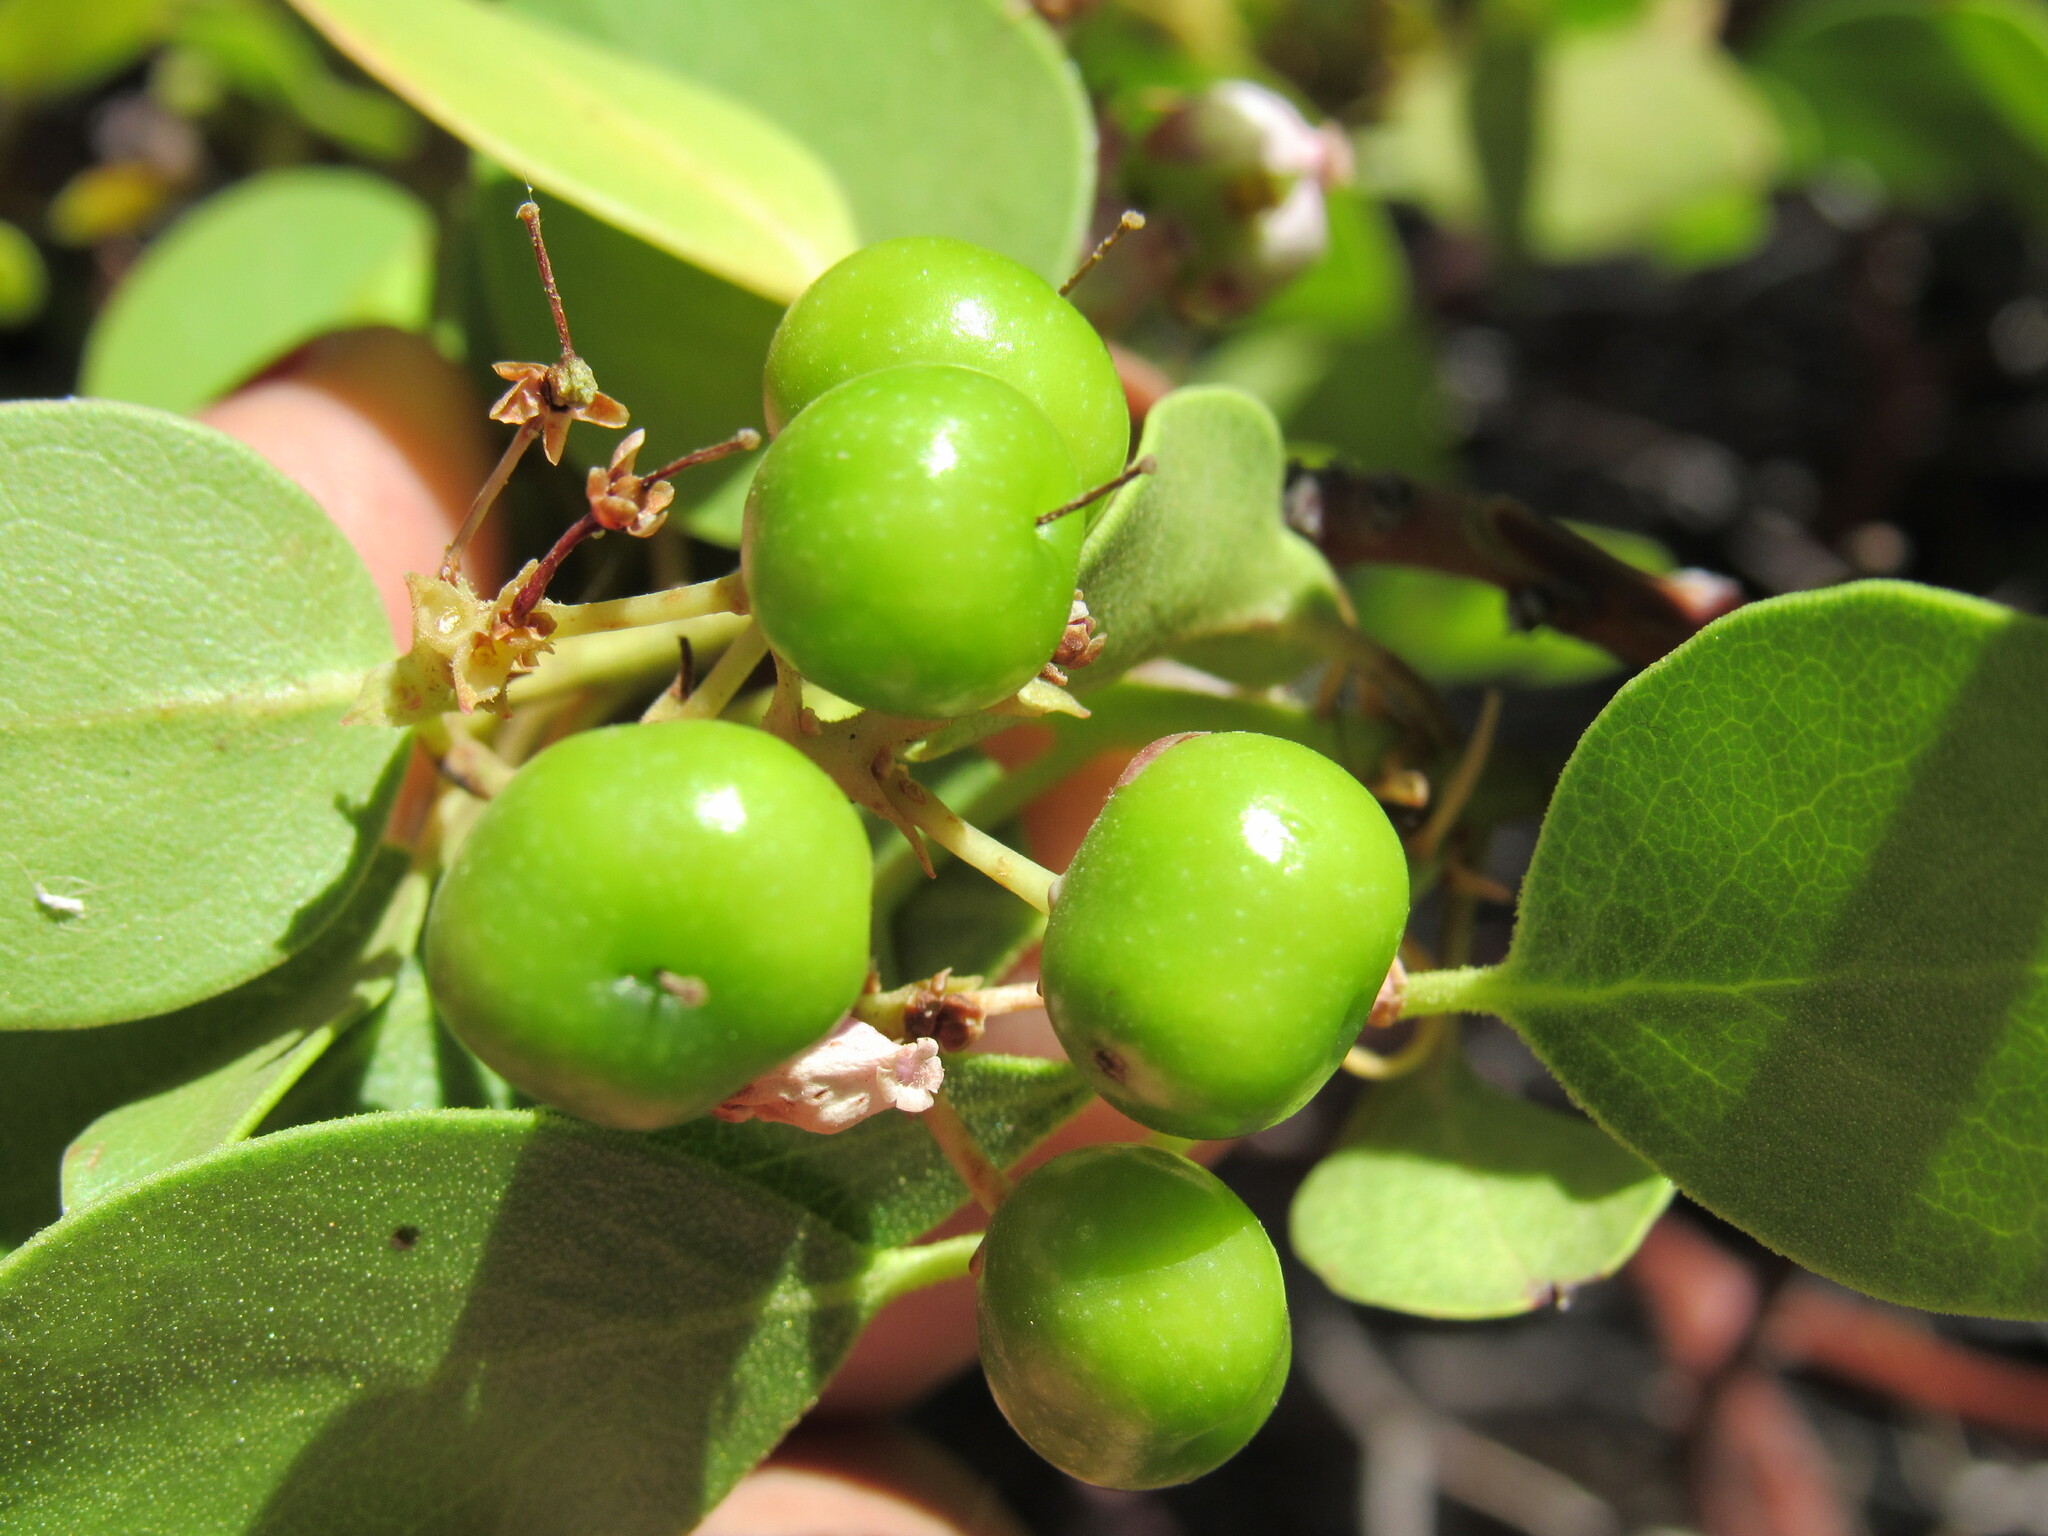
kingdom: Plantae
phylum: Tracheophyta
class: Magnoliopsida
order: Ericales
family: Ericaceae
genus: Arctostaphylos
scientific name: Arctostaphylos patula
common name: Green-leaf manzanita
